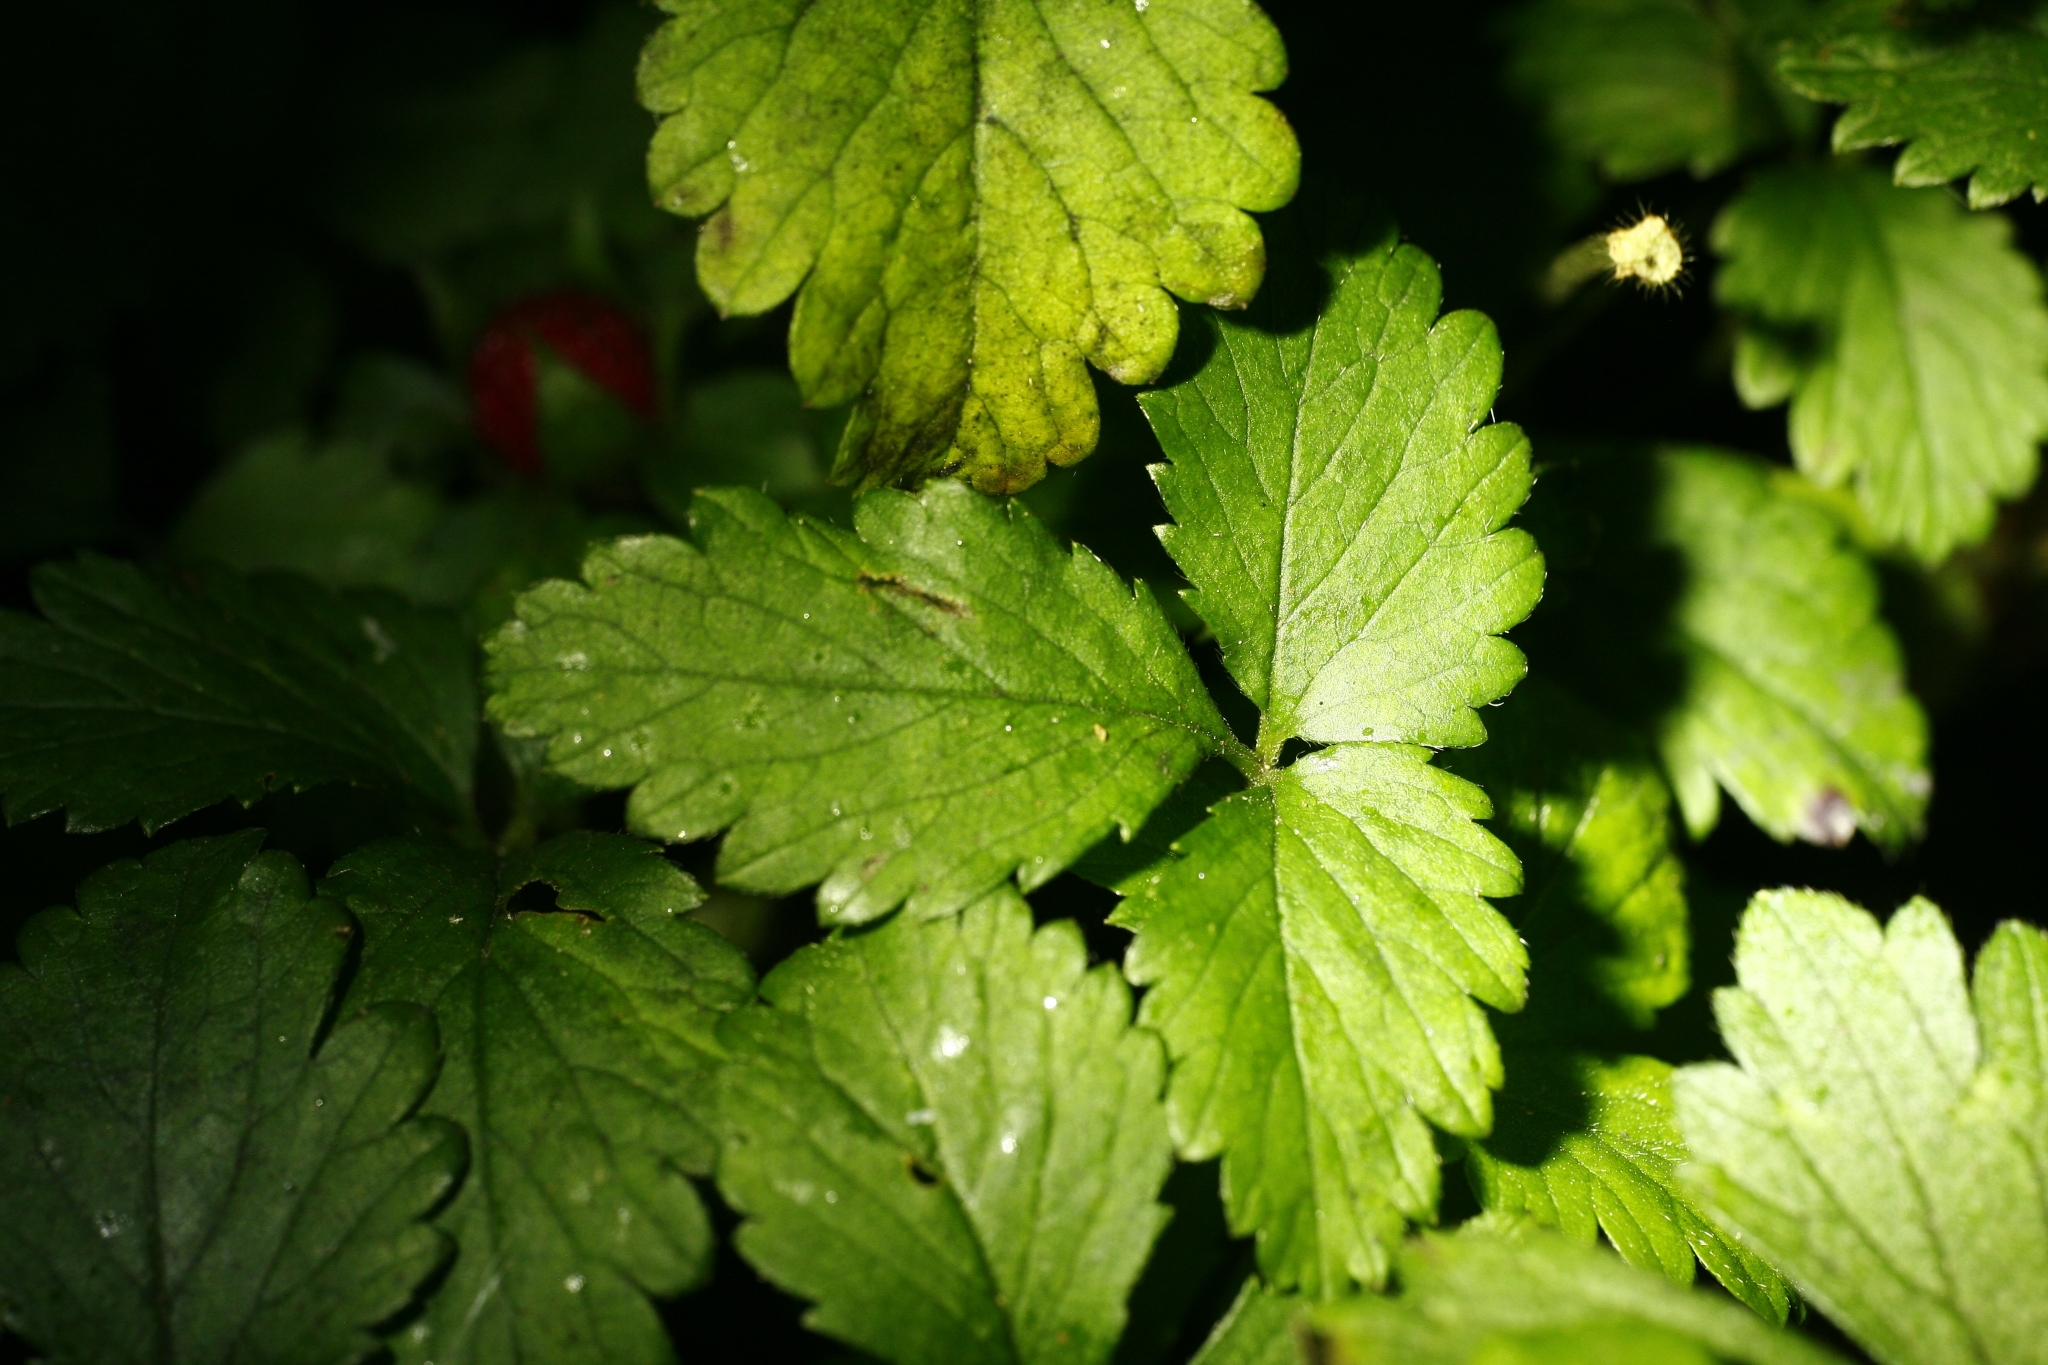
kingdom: Plantae
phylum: Tracheophyta
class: Magnoliopsida
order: Rosales
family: Rosaceae
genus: Potentilla
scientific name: Potentilla indica
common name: Yellow-flowered strawberry
